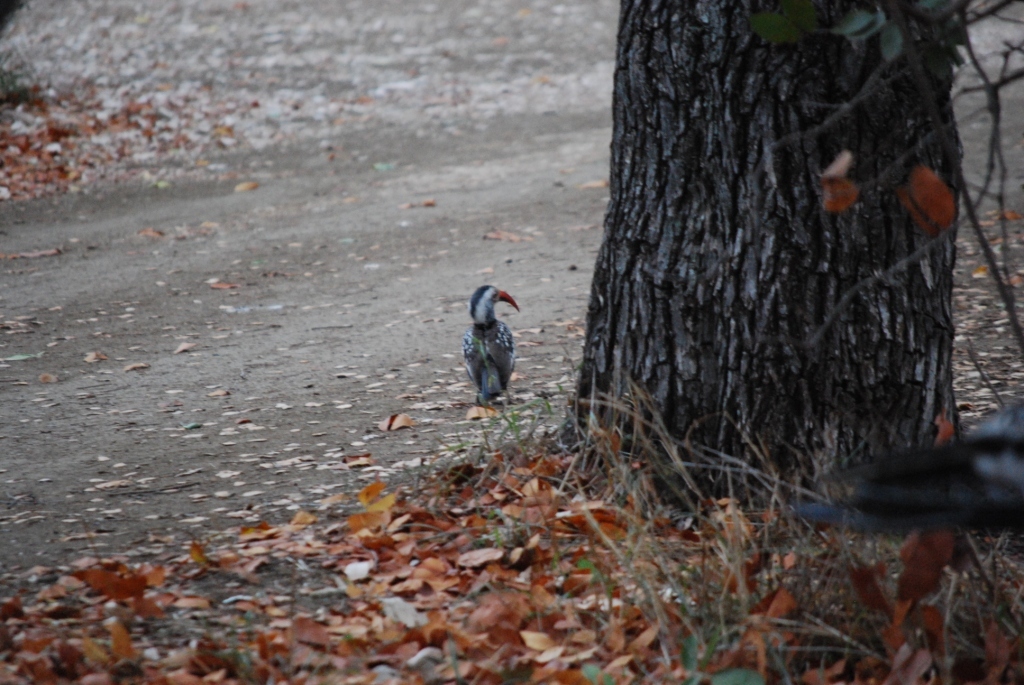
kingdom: Animalia
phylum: Chordata
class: Aves
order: Bucerotiformes
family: Bucerotidae
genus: Tockus
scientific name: Tockus rufirostris
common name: Southern red-billed hornbill
